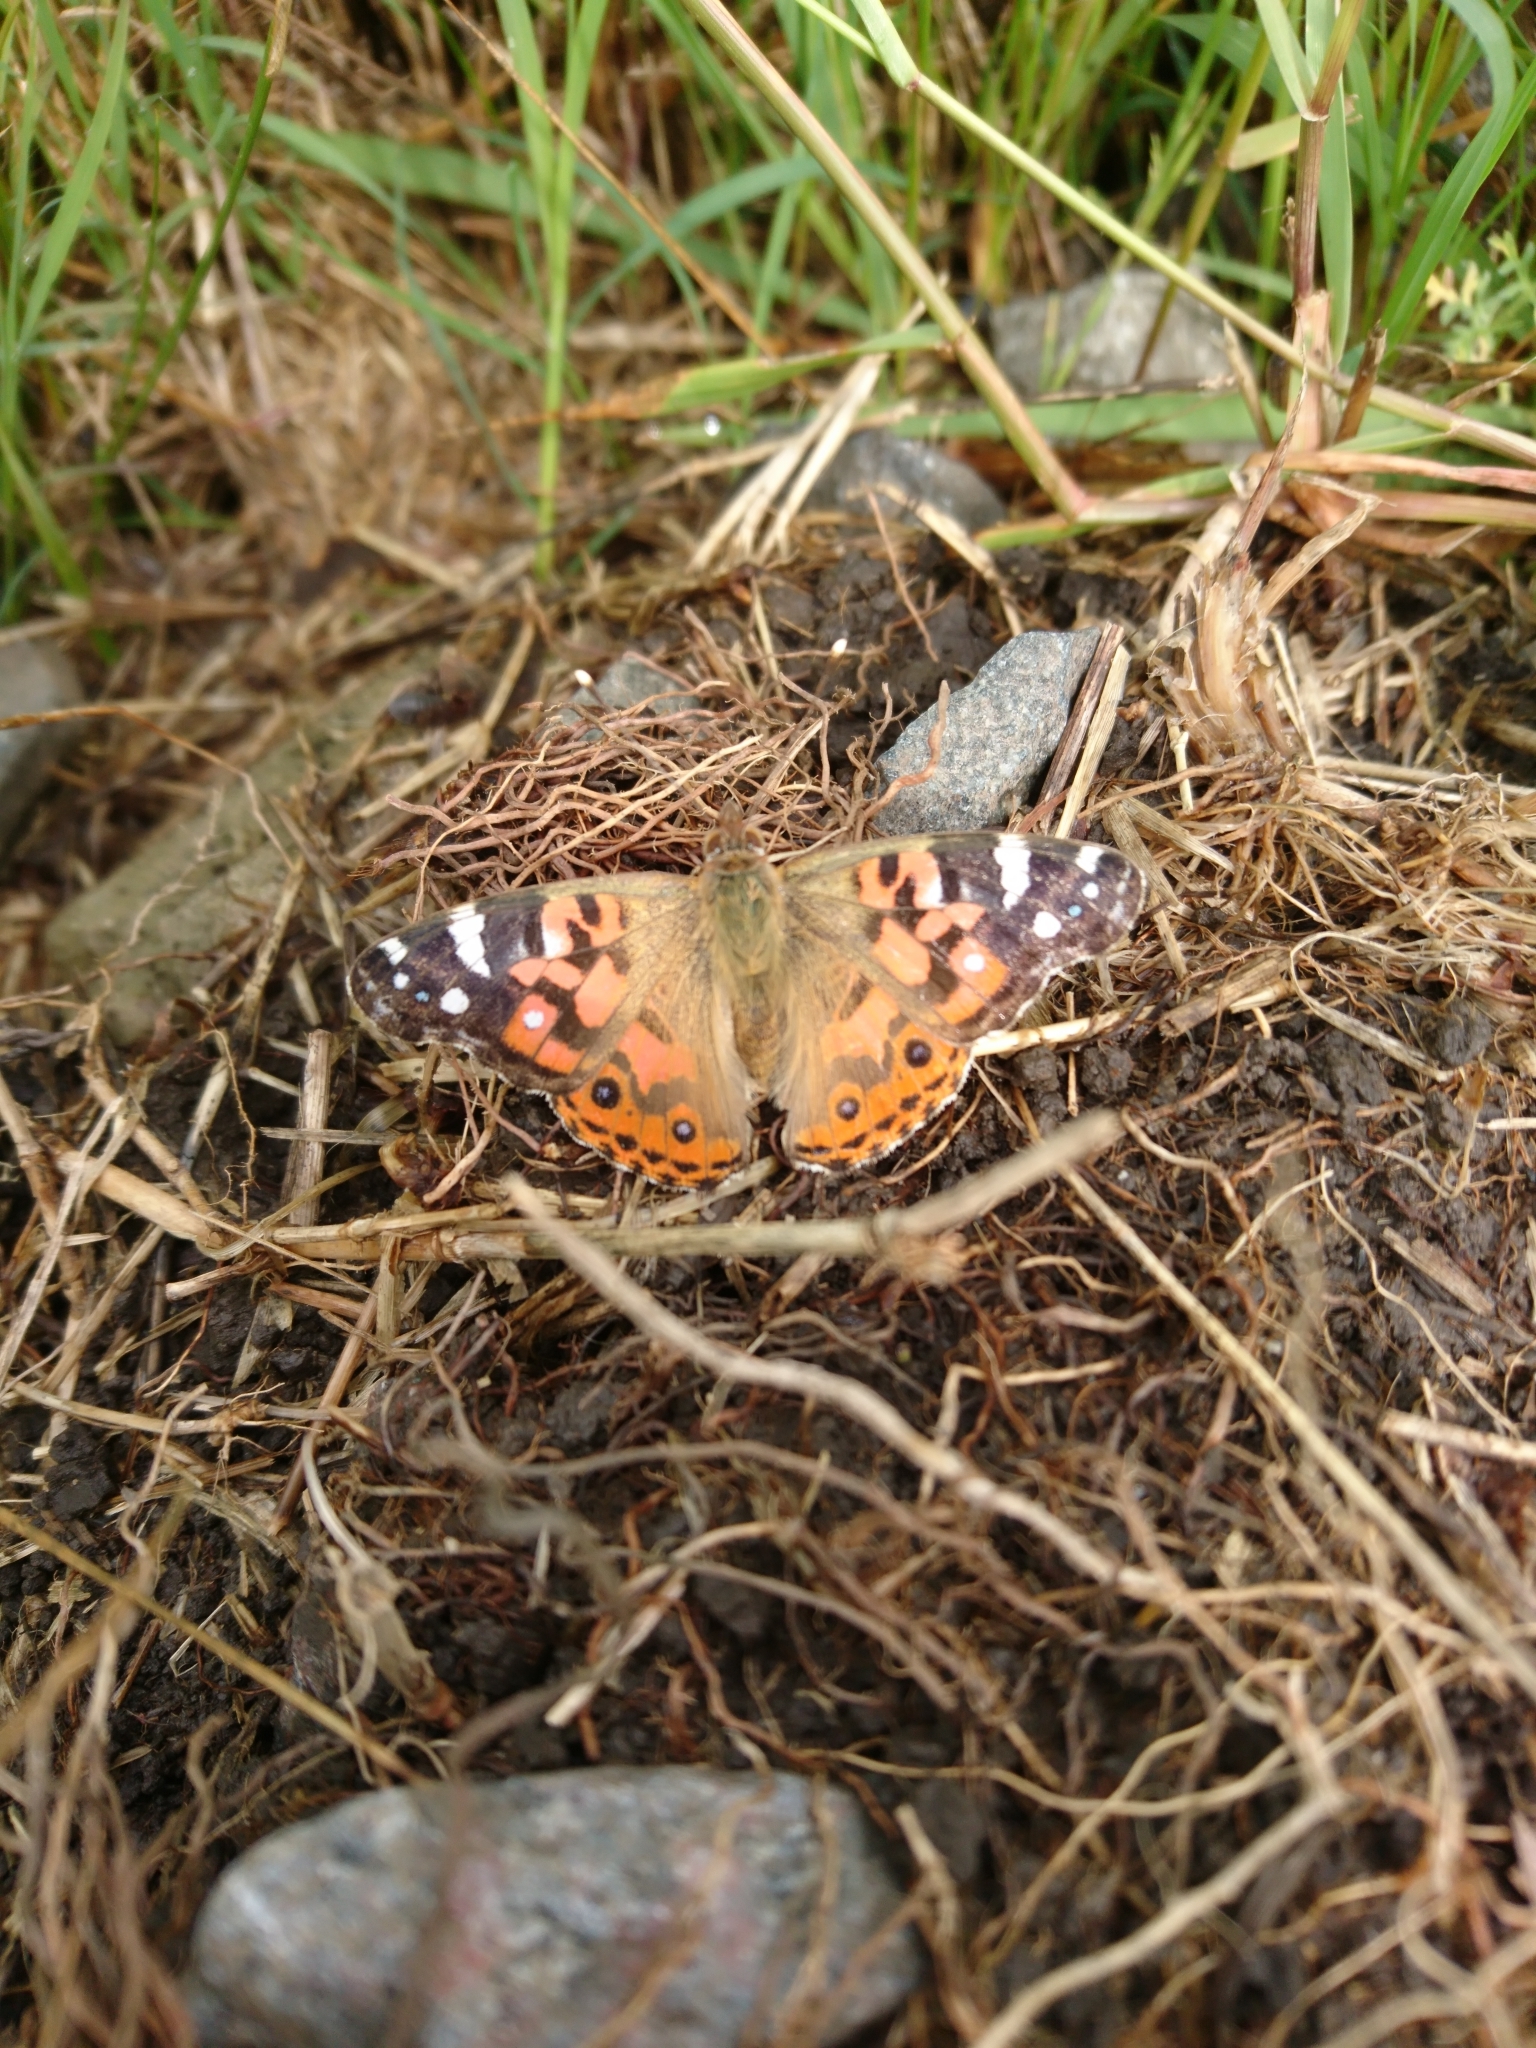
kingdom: Animalia
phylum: Arthropoda
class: Insecta
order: Lepidoptera
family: Nymphalidae
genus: Vanessa
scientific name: Vanessa braziliensis
